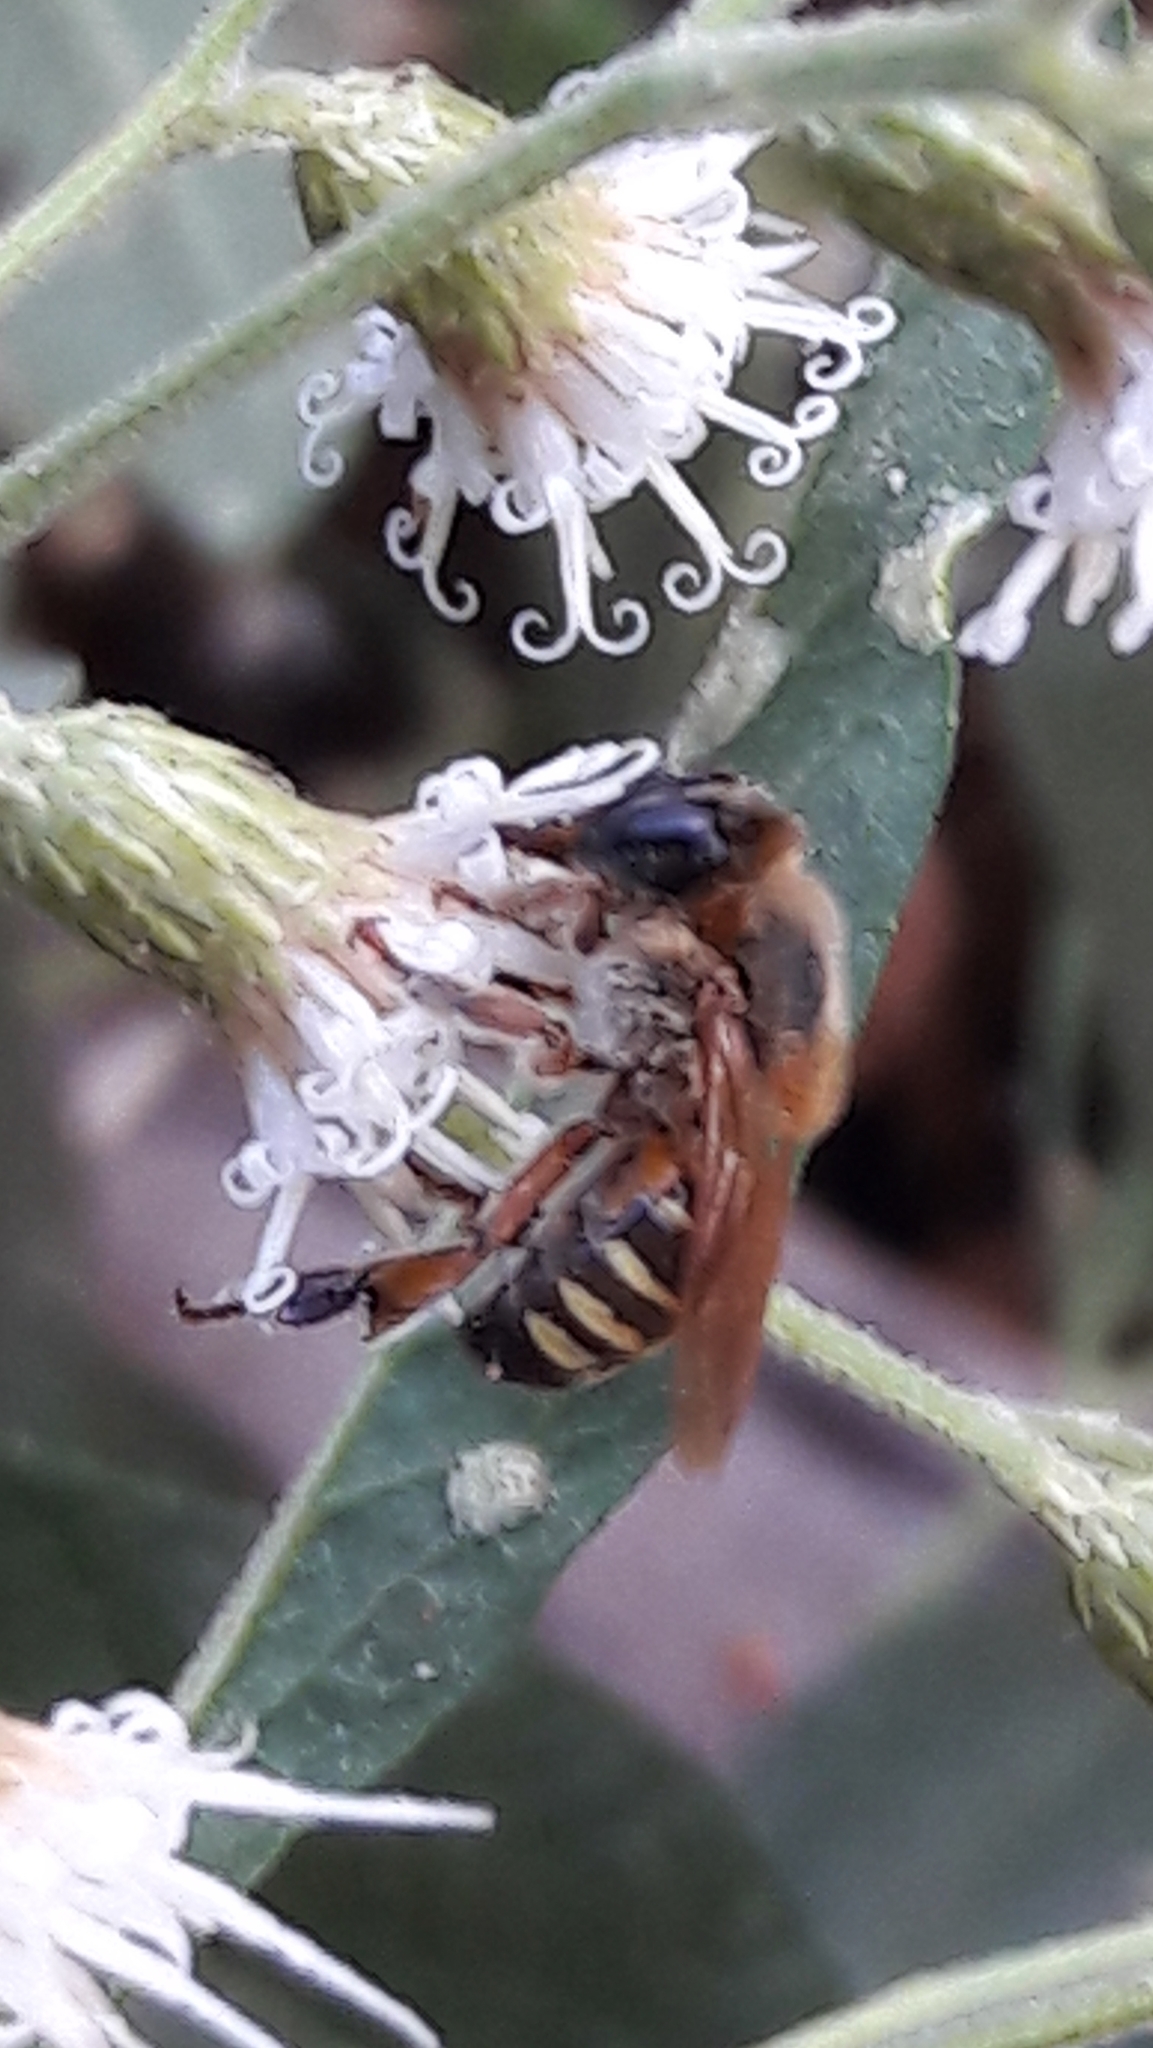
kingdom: Animalia
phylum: Arthropoda
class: Insecta
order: Hymenoptera
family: Apidae
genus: Melipona
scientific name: Melipona quinquefasciata
